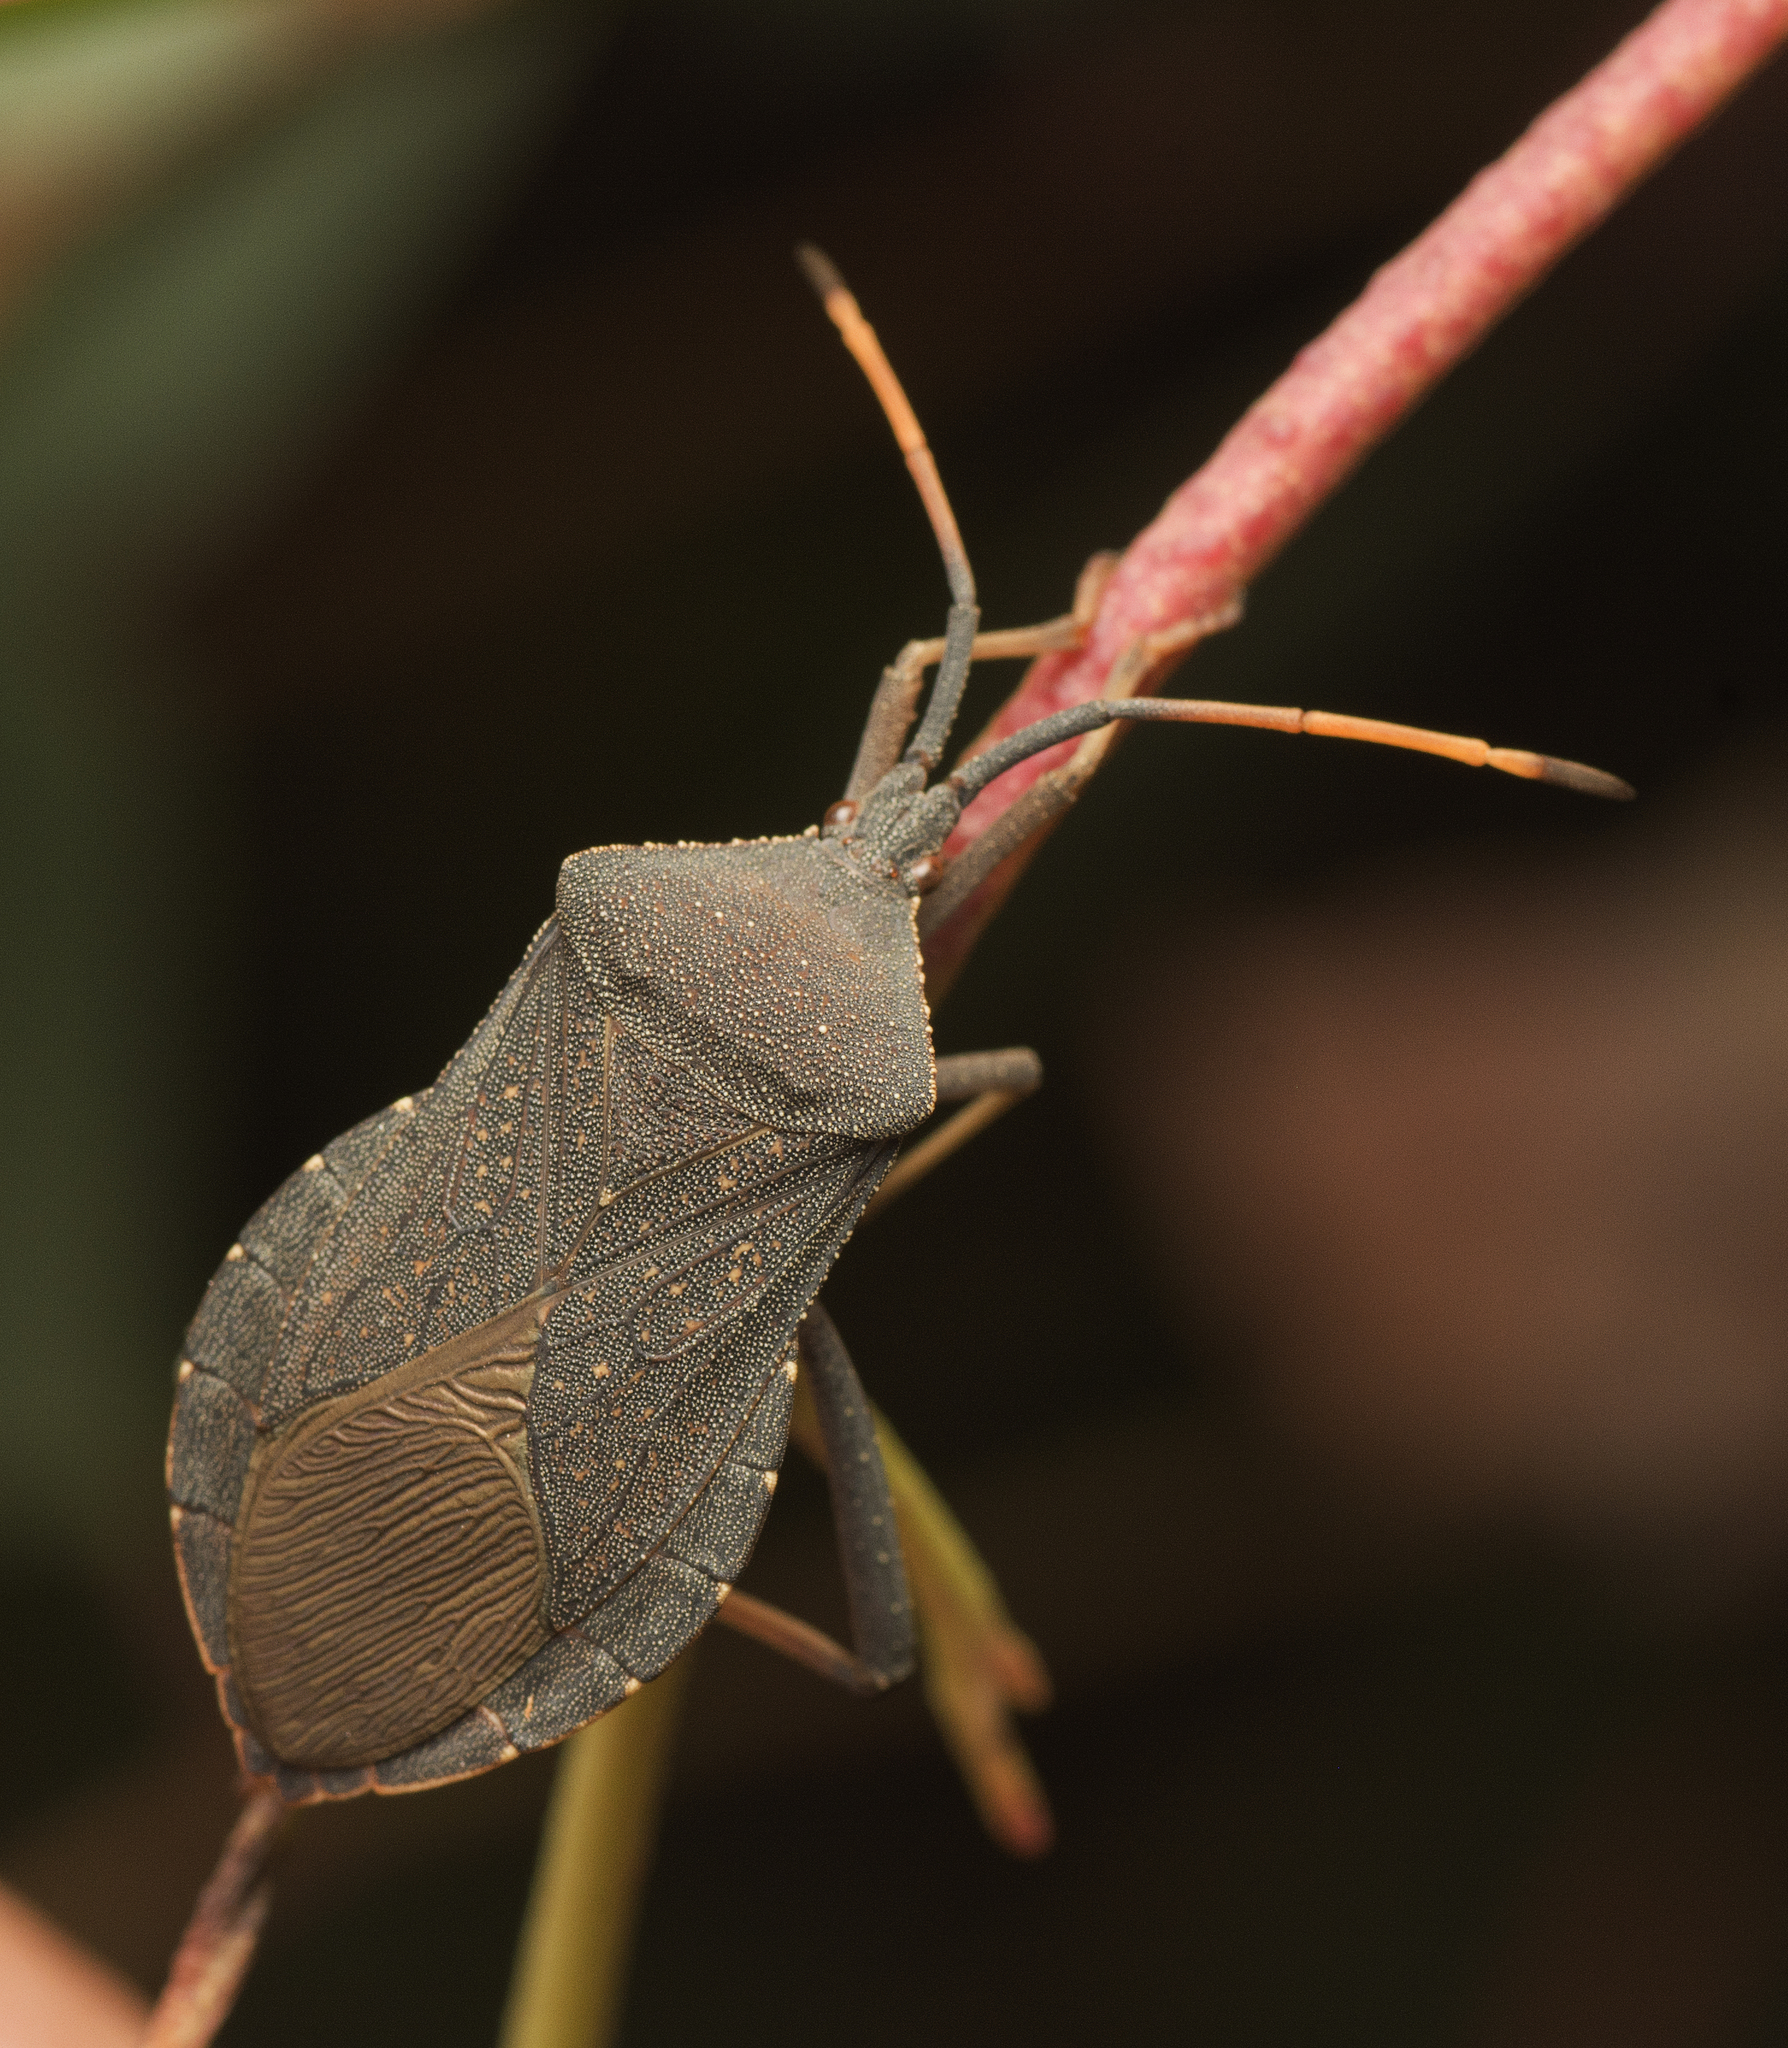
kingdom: Animalia
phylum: Arthropoda
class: Insecta
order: Hemiptera
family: Coreidae
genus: Amorbus
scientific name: Amorbus rubiginosus
